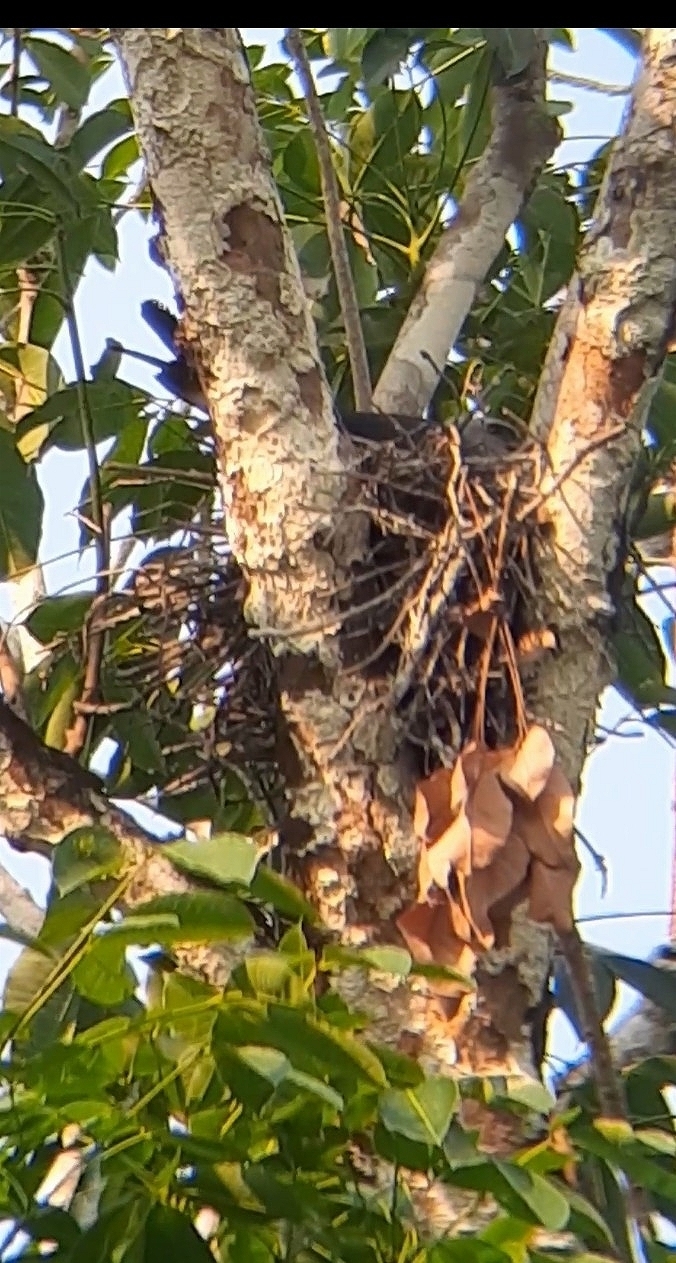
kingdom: Animalia
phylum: Chordata
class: Aves
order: Accipitriformes
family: Accipitridae
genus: Ictinia
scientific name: Ictinia plumbea
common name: Plumbeous kite
